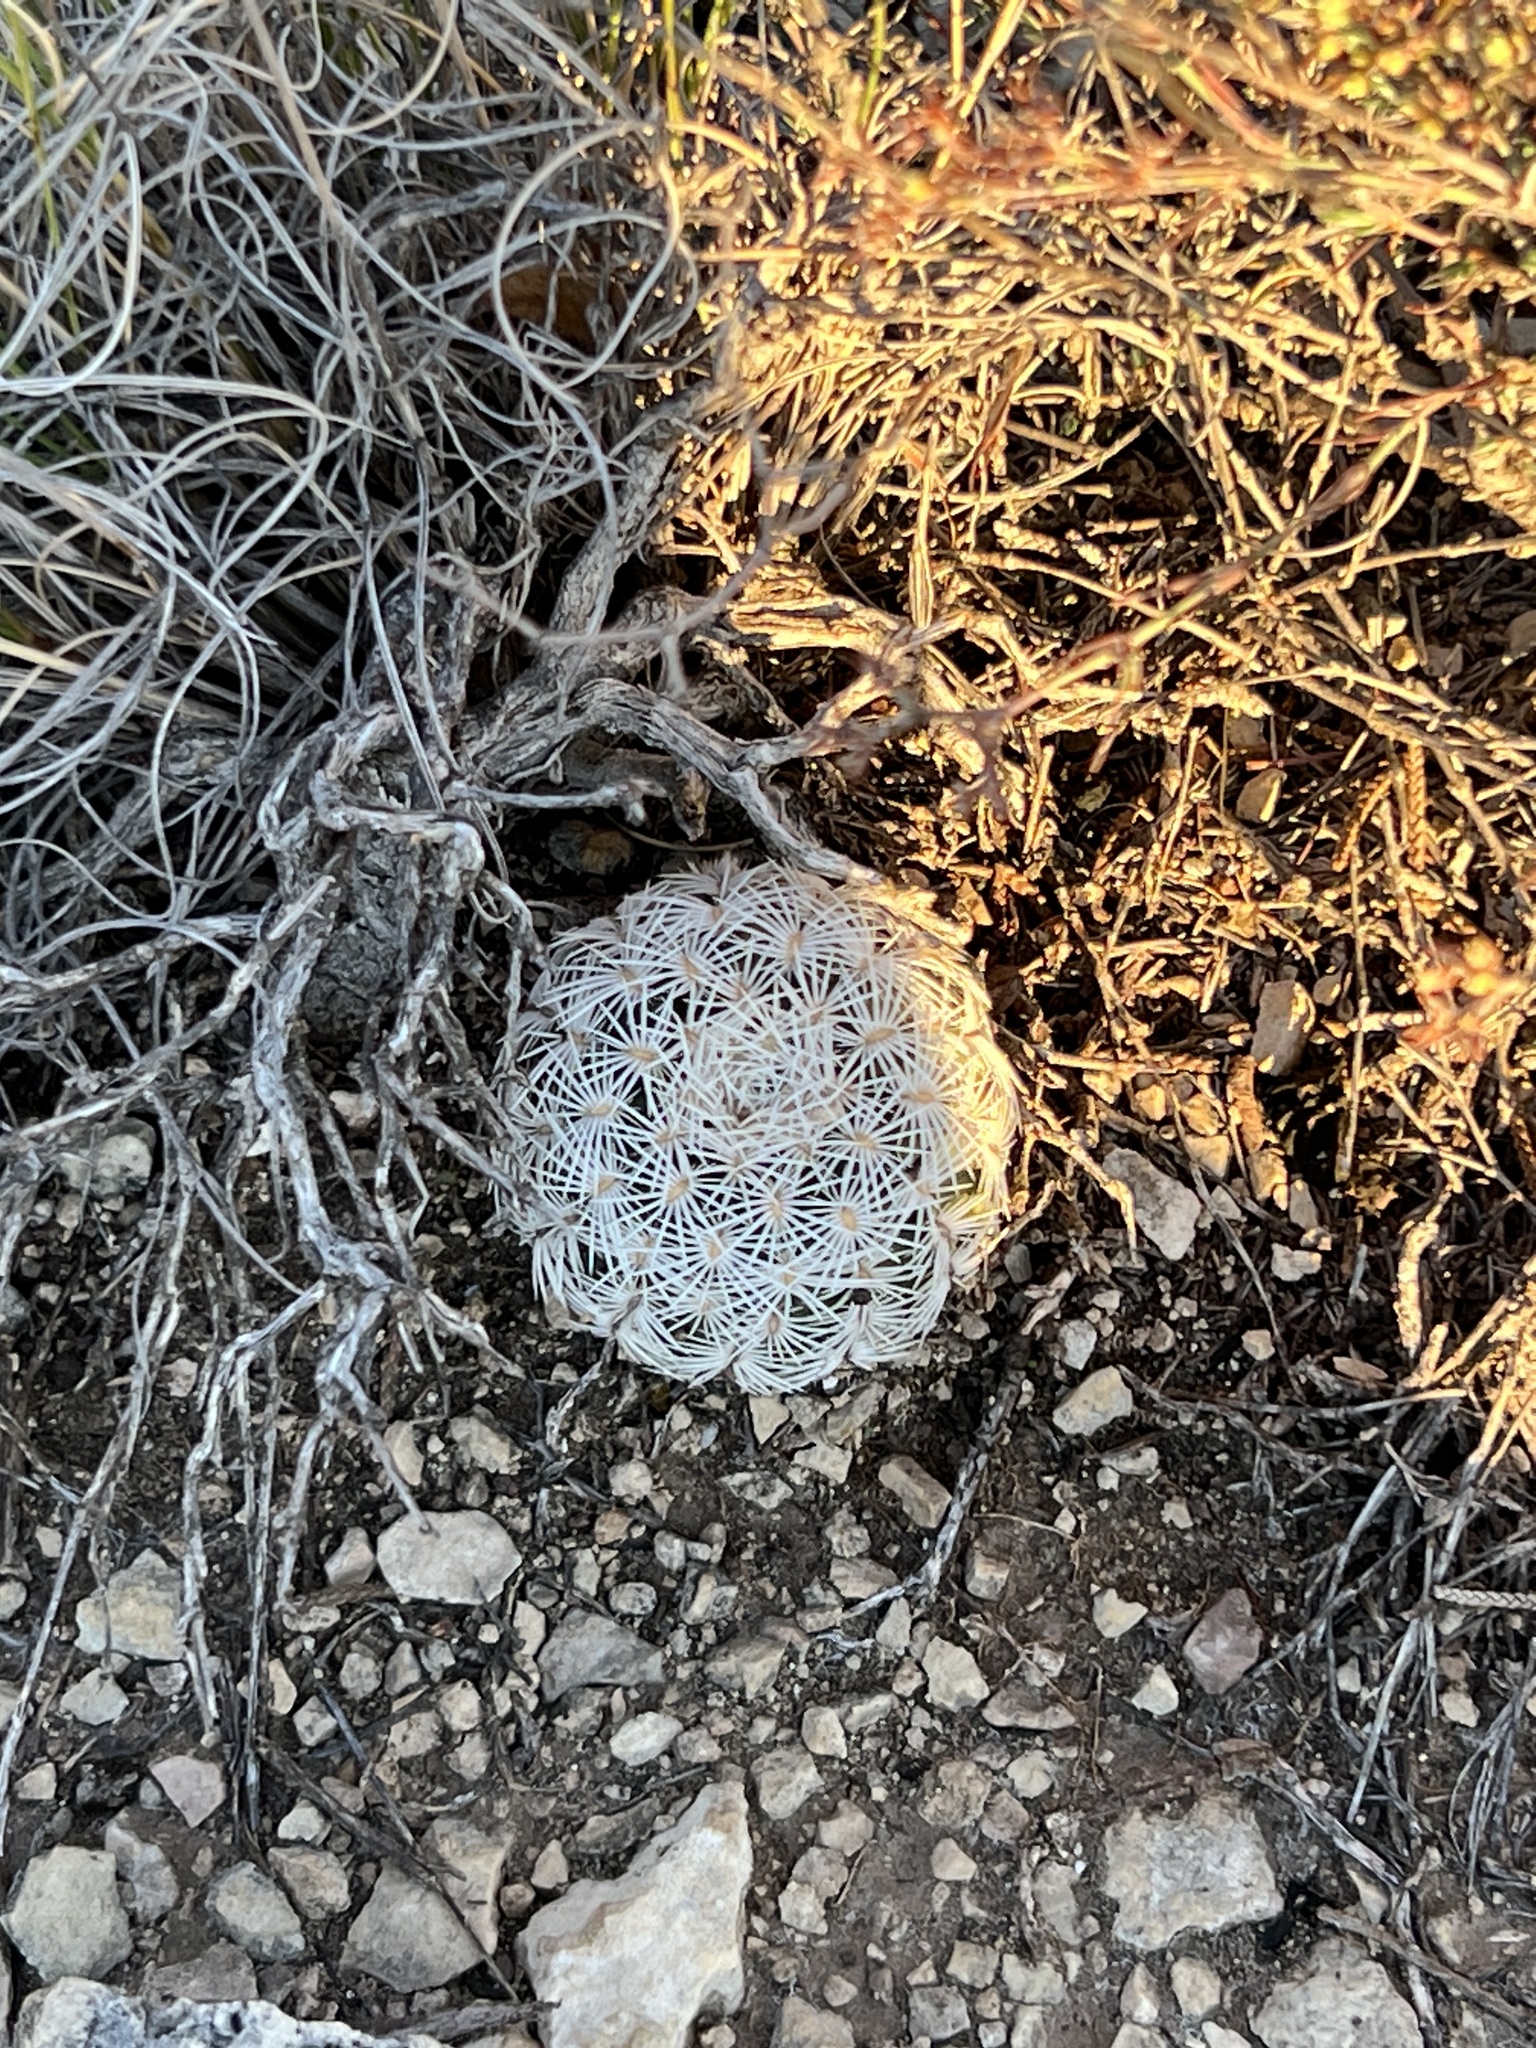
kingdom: Plantae
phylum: Tracheophyta
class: Magnoliopsida
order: Caryophyllales
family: Cactaceae
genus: Echinocereus
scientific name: Echinocereus reichenbachii
